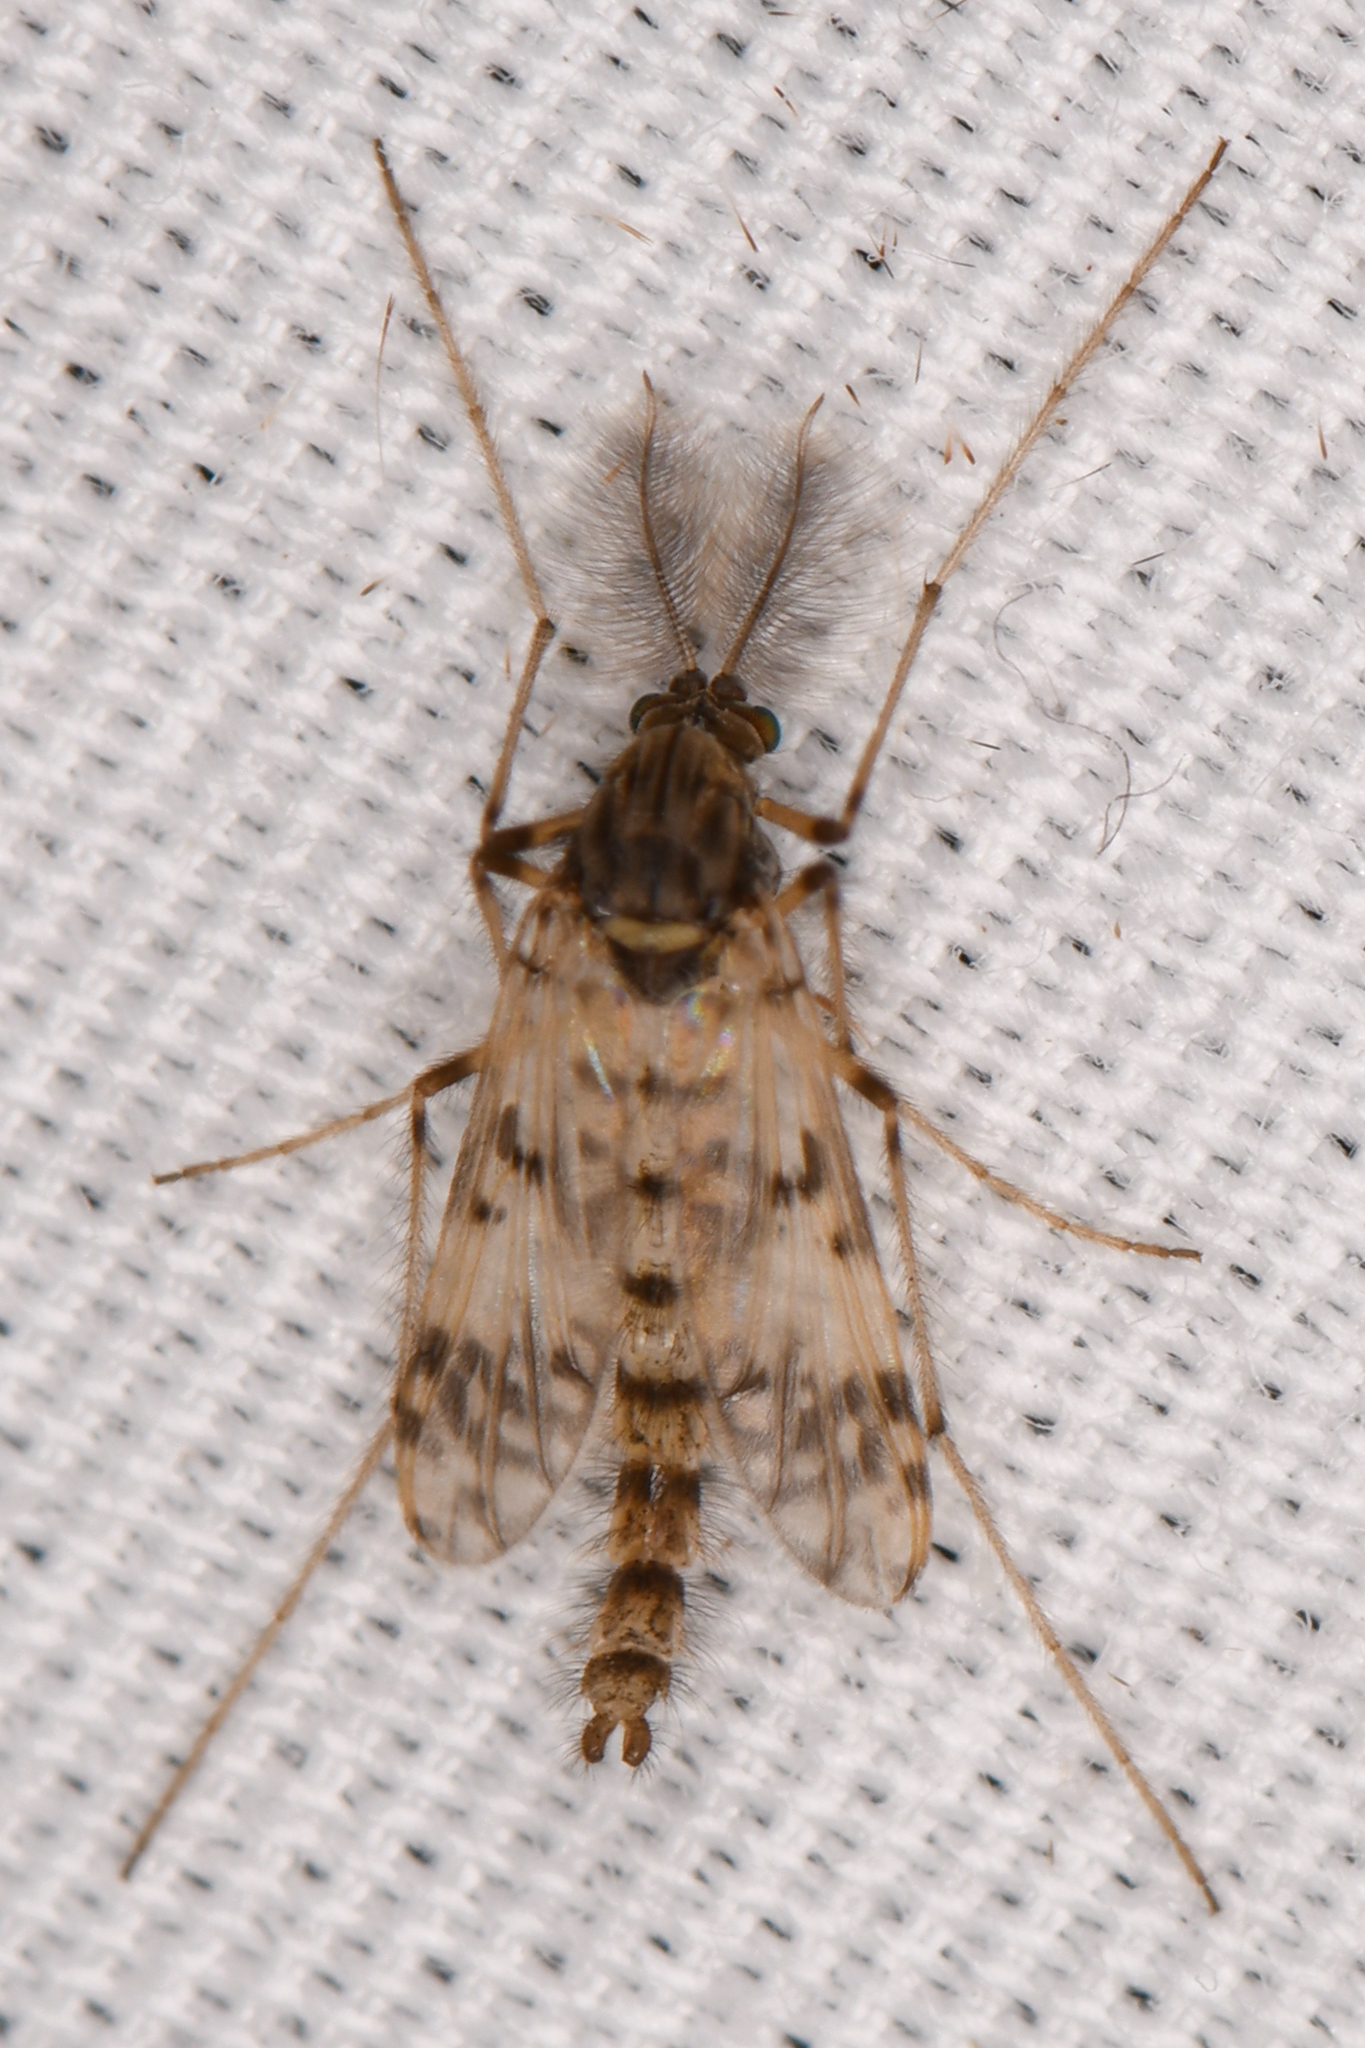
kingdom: Animalia
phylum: Arthropoda
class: Insecta
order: Diptera
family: Chironomidae
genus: Alotanypus
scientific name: Alotanypus venusta
